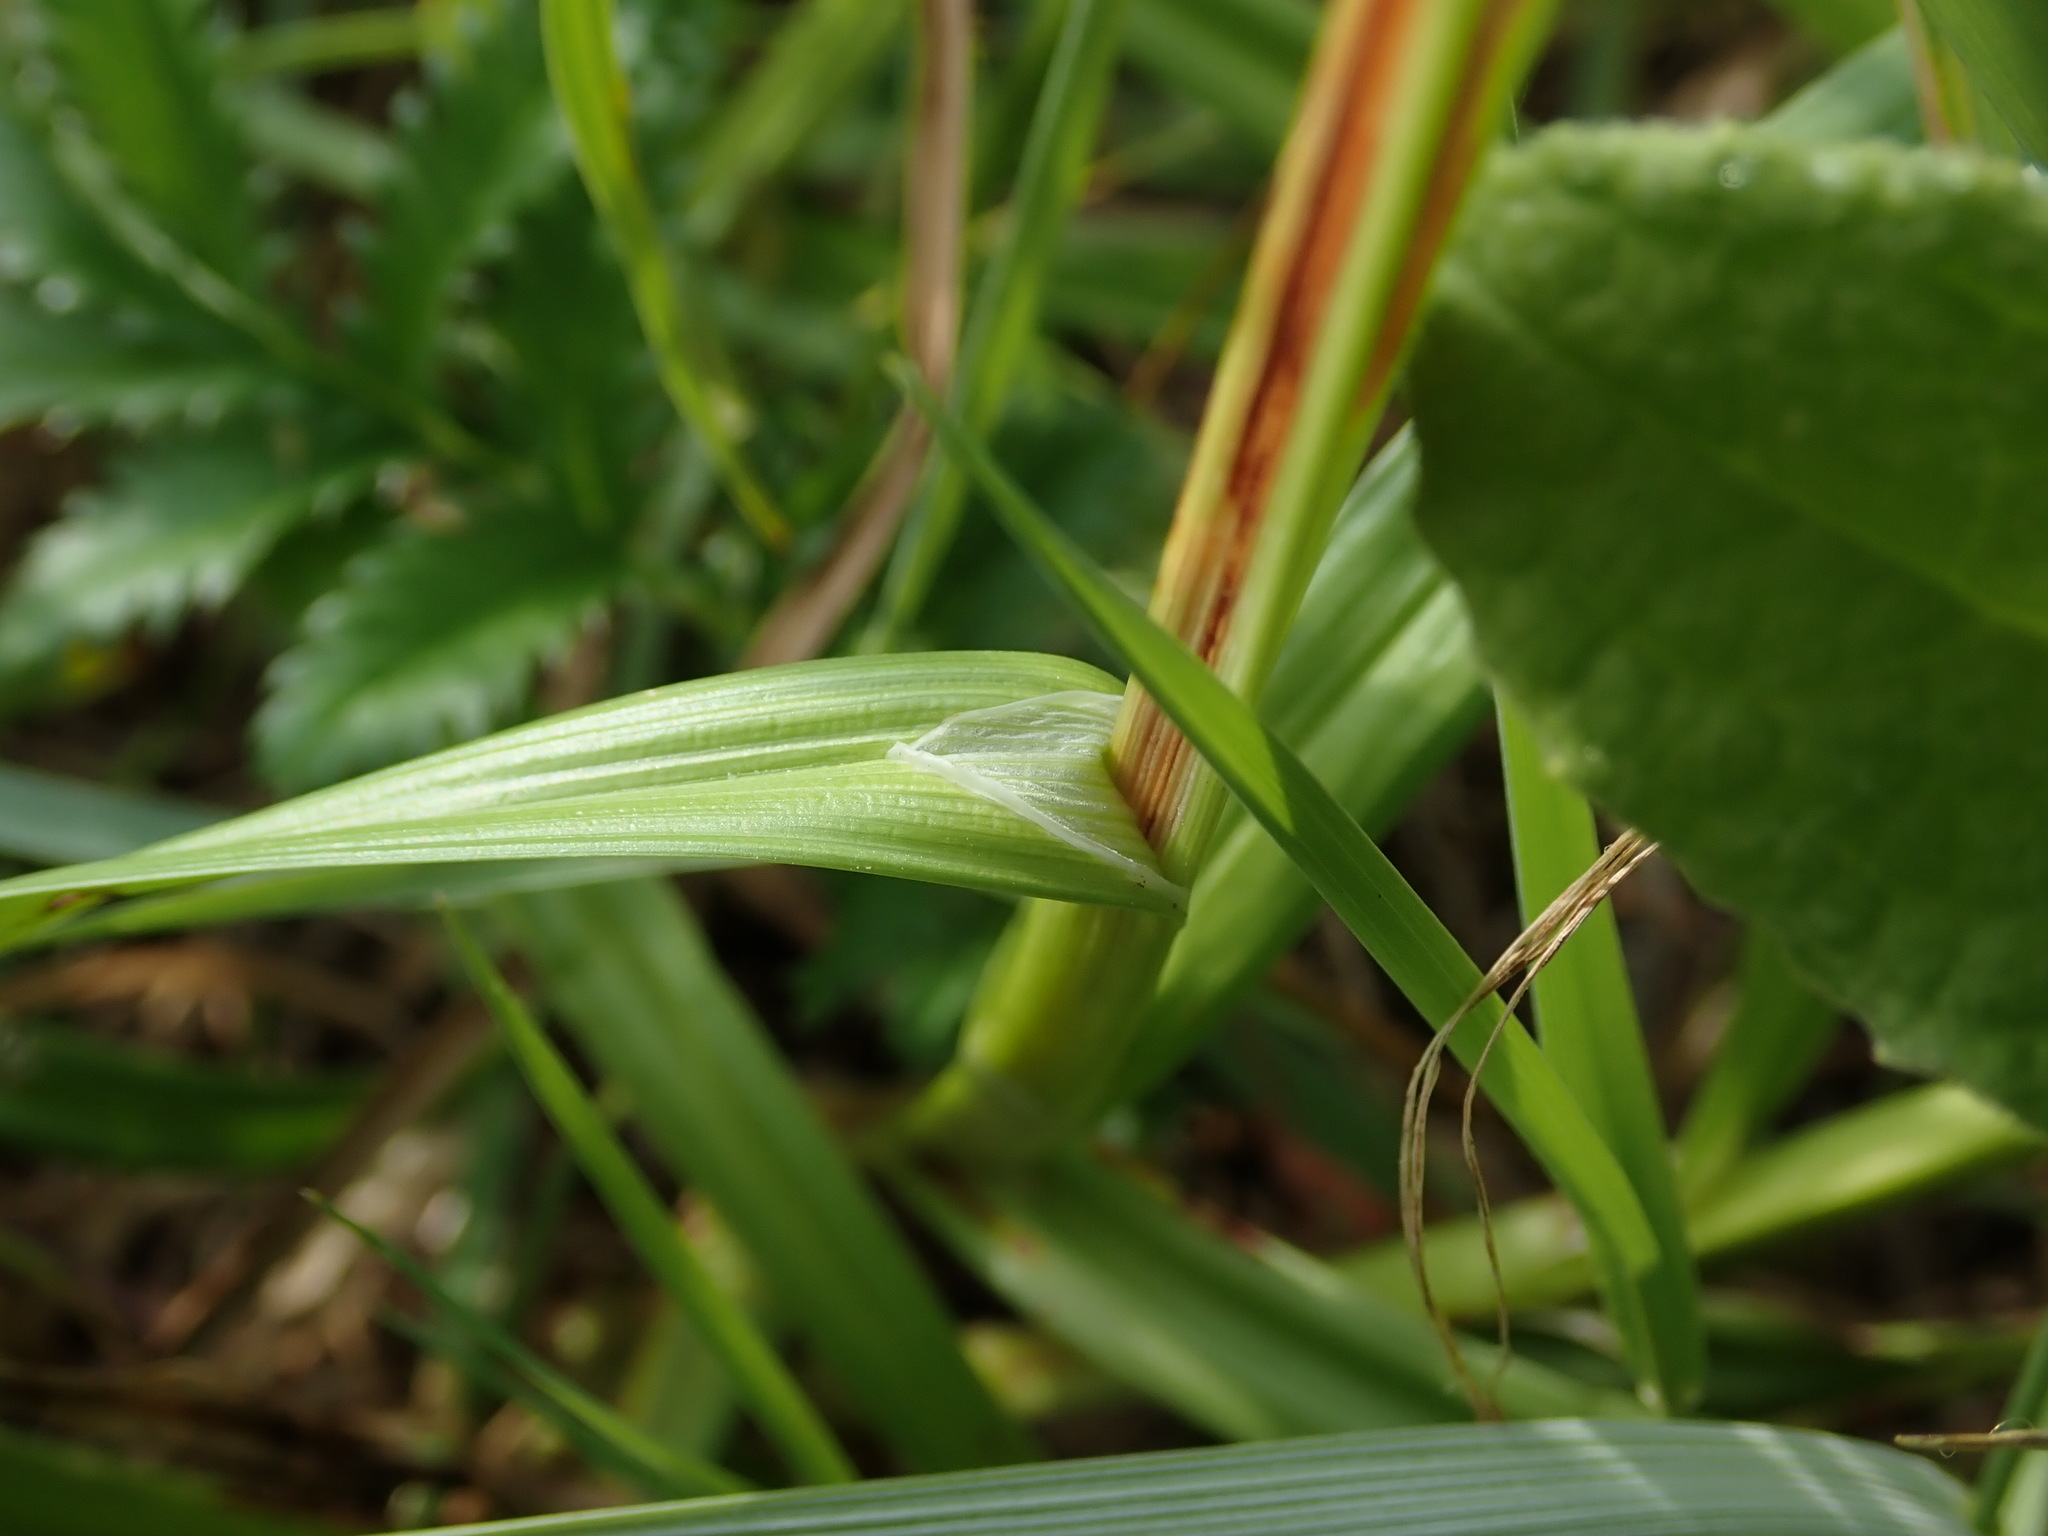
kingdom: Plantae
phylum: Tracheophyta
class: Liliopsida
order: Poales
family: Cyperaceae
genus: Carex
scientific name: Carex otrubae
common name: False fox-sedge
